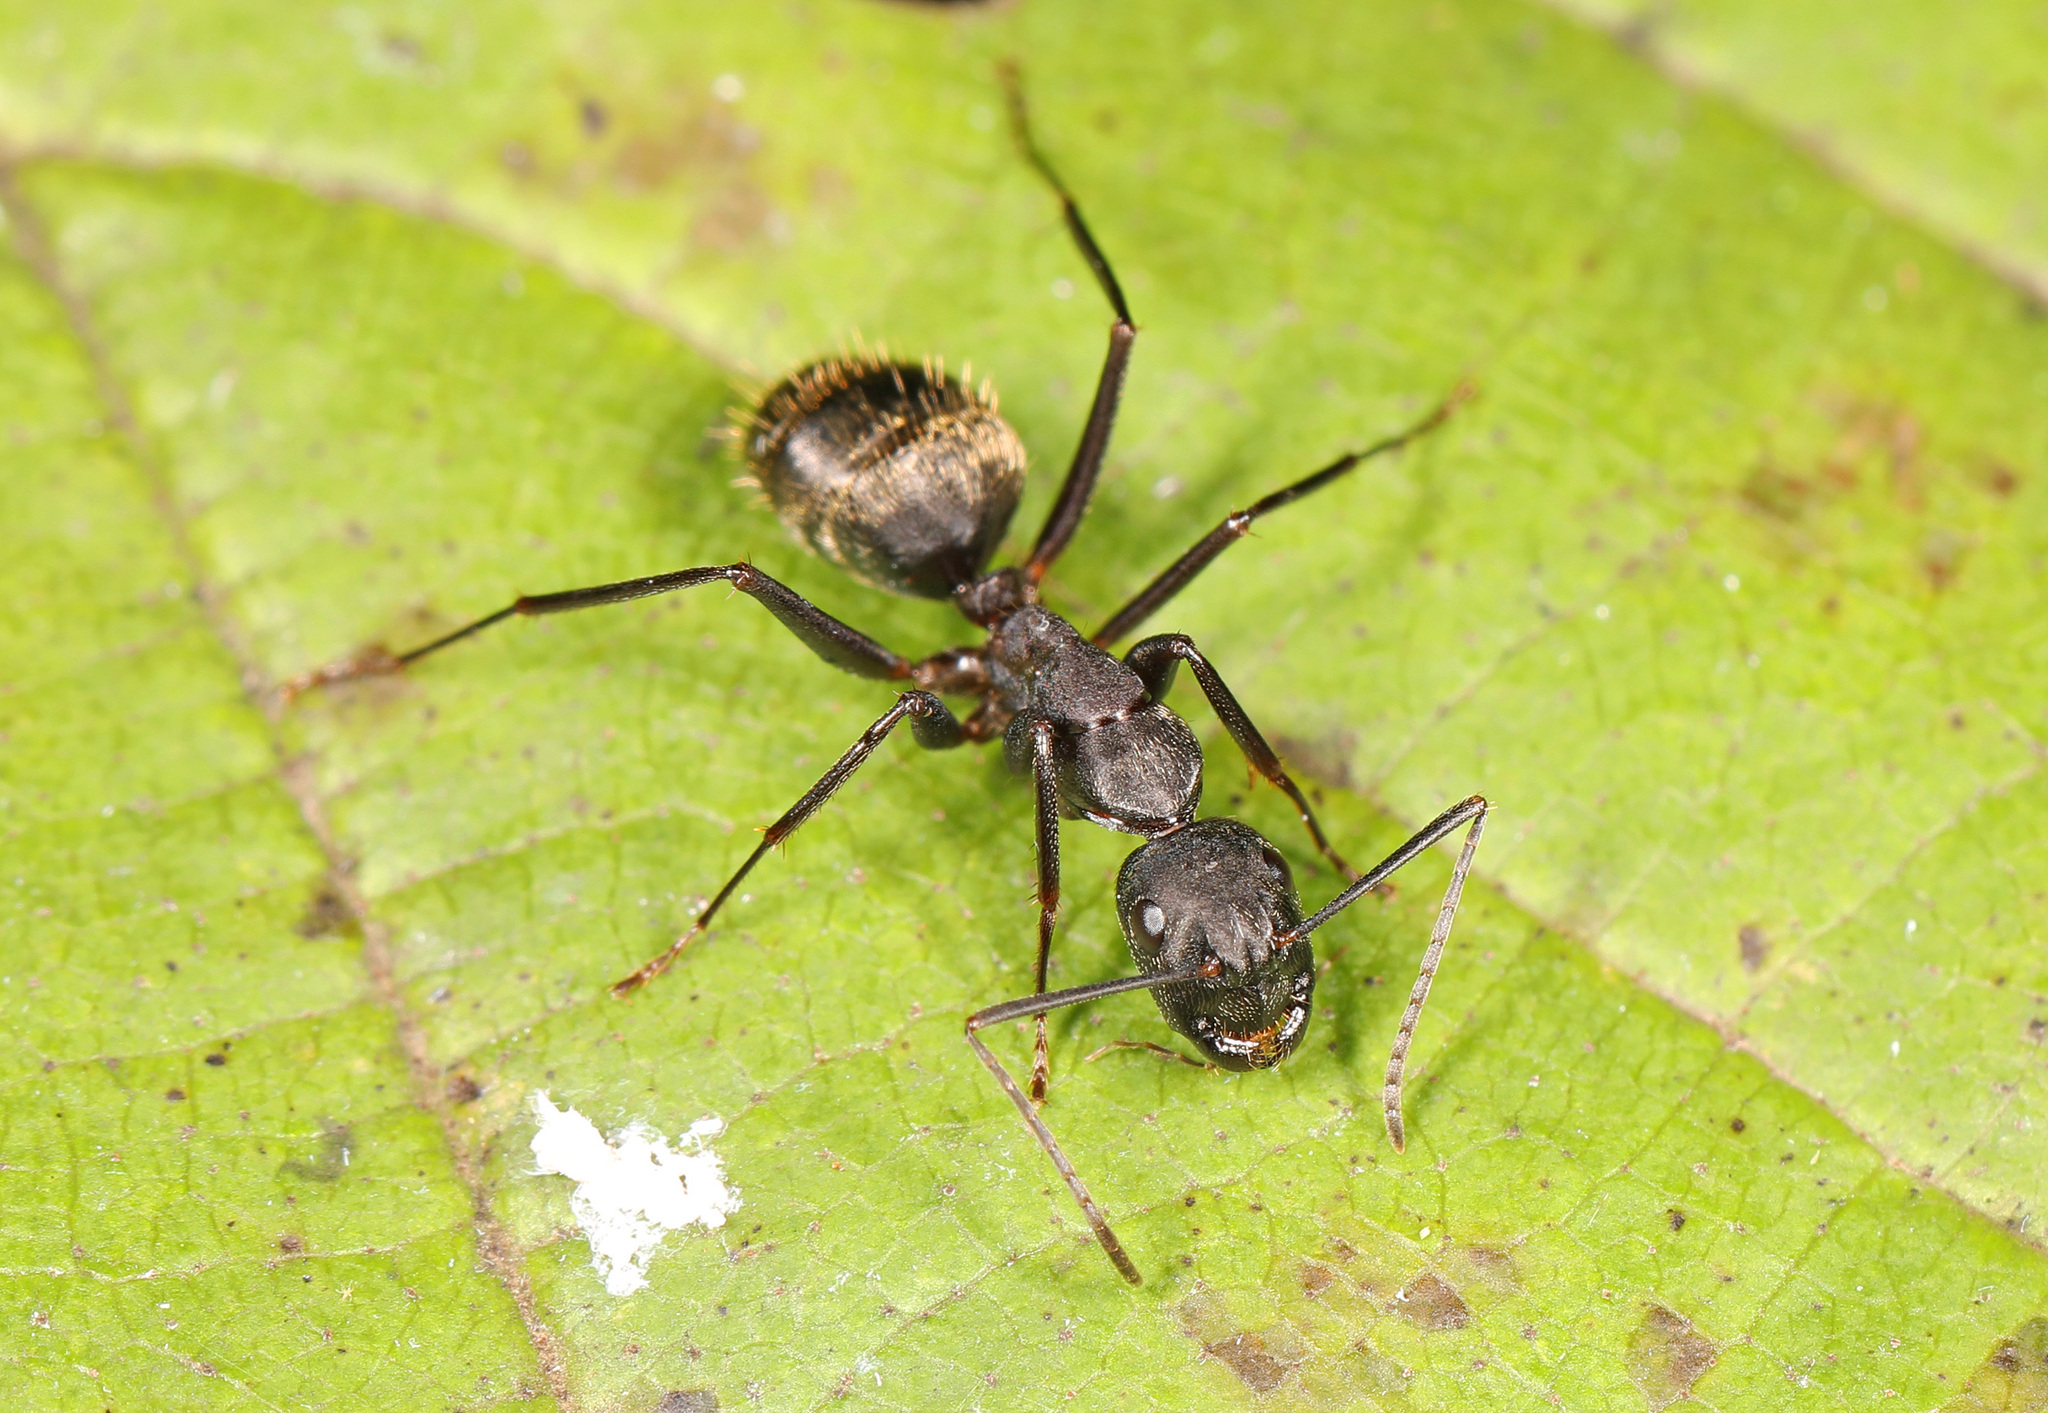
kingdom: Animalia
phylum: Arthropoda
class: Insecta
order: Hymenoptera
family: Formicidae
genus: Camponotus
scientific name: Camponotus pennsylvanicus
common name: Black carpenter ant
